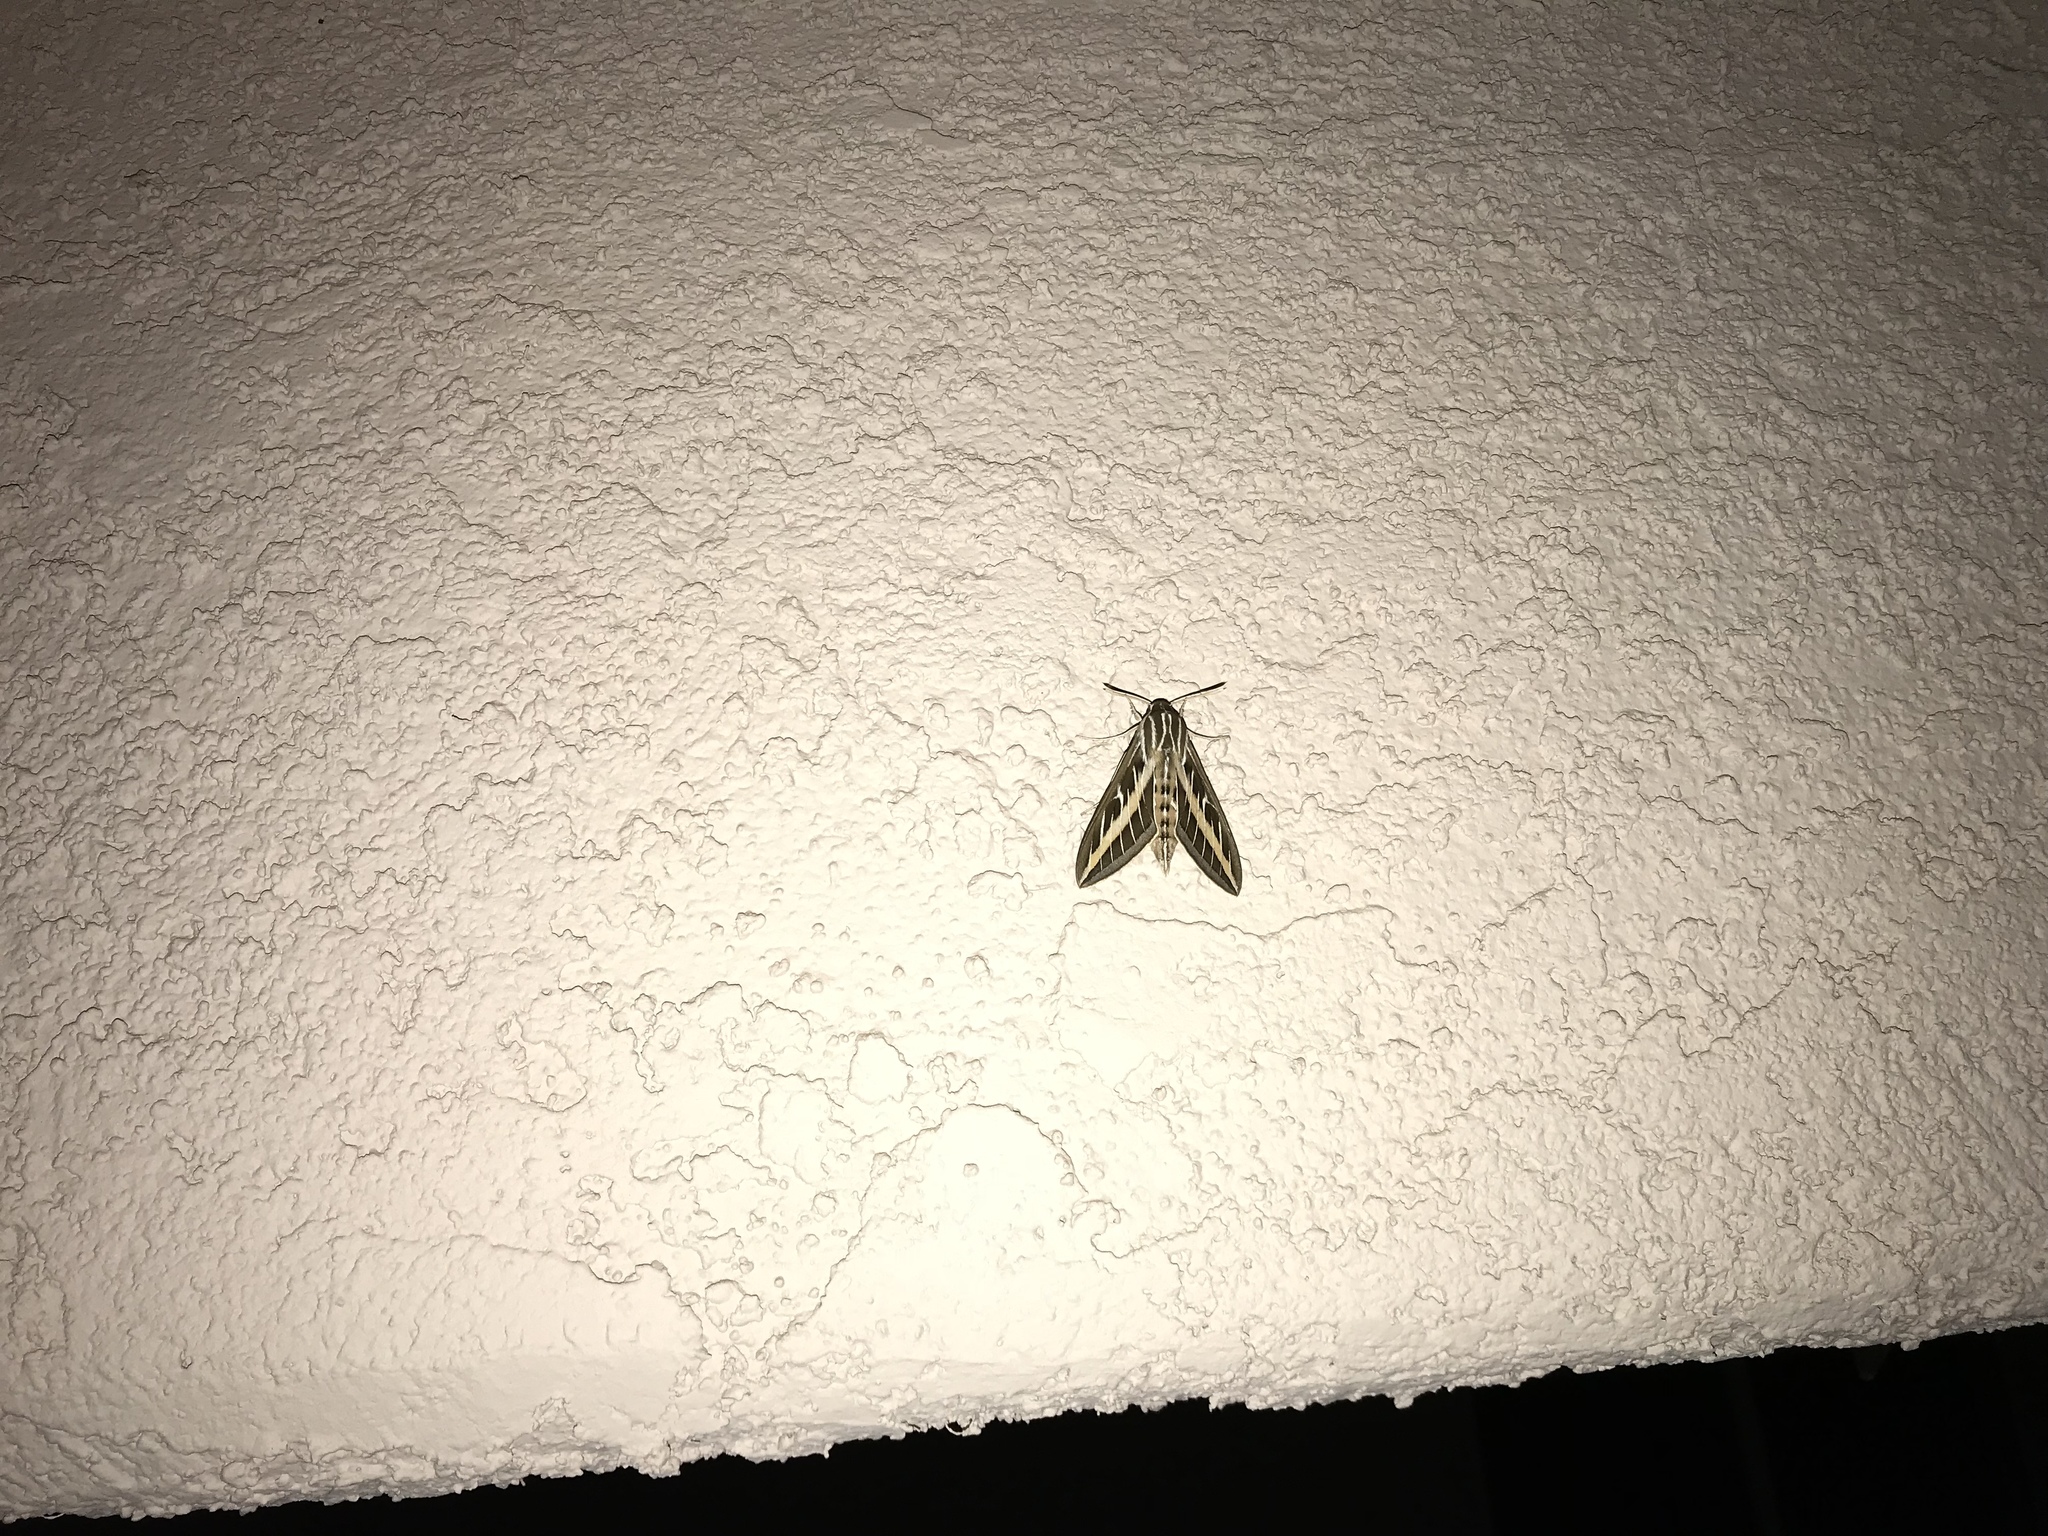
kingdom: Animalia
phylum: Arthropoda
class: Insecta
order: Lepidoptera
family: Sphingidae
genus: Hyles
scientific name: Hyles lineata
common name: White-lined sphinx
